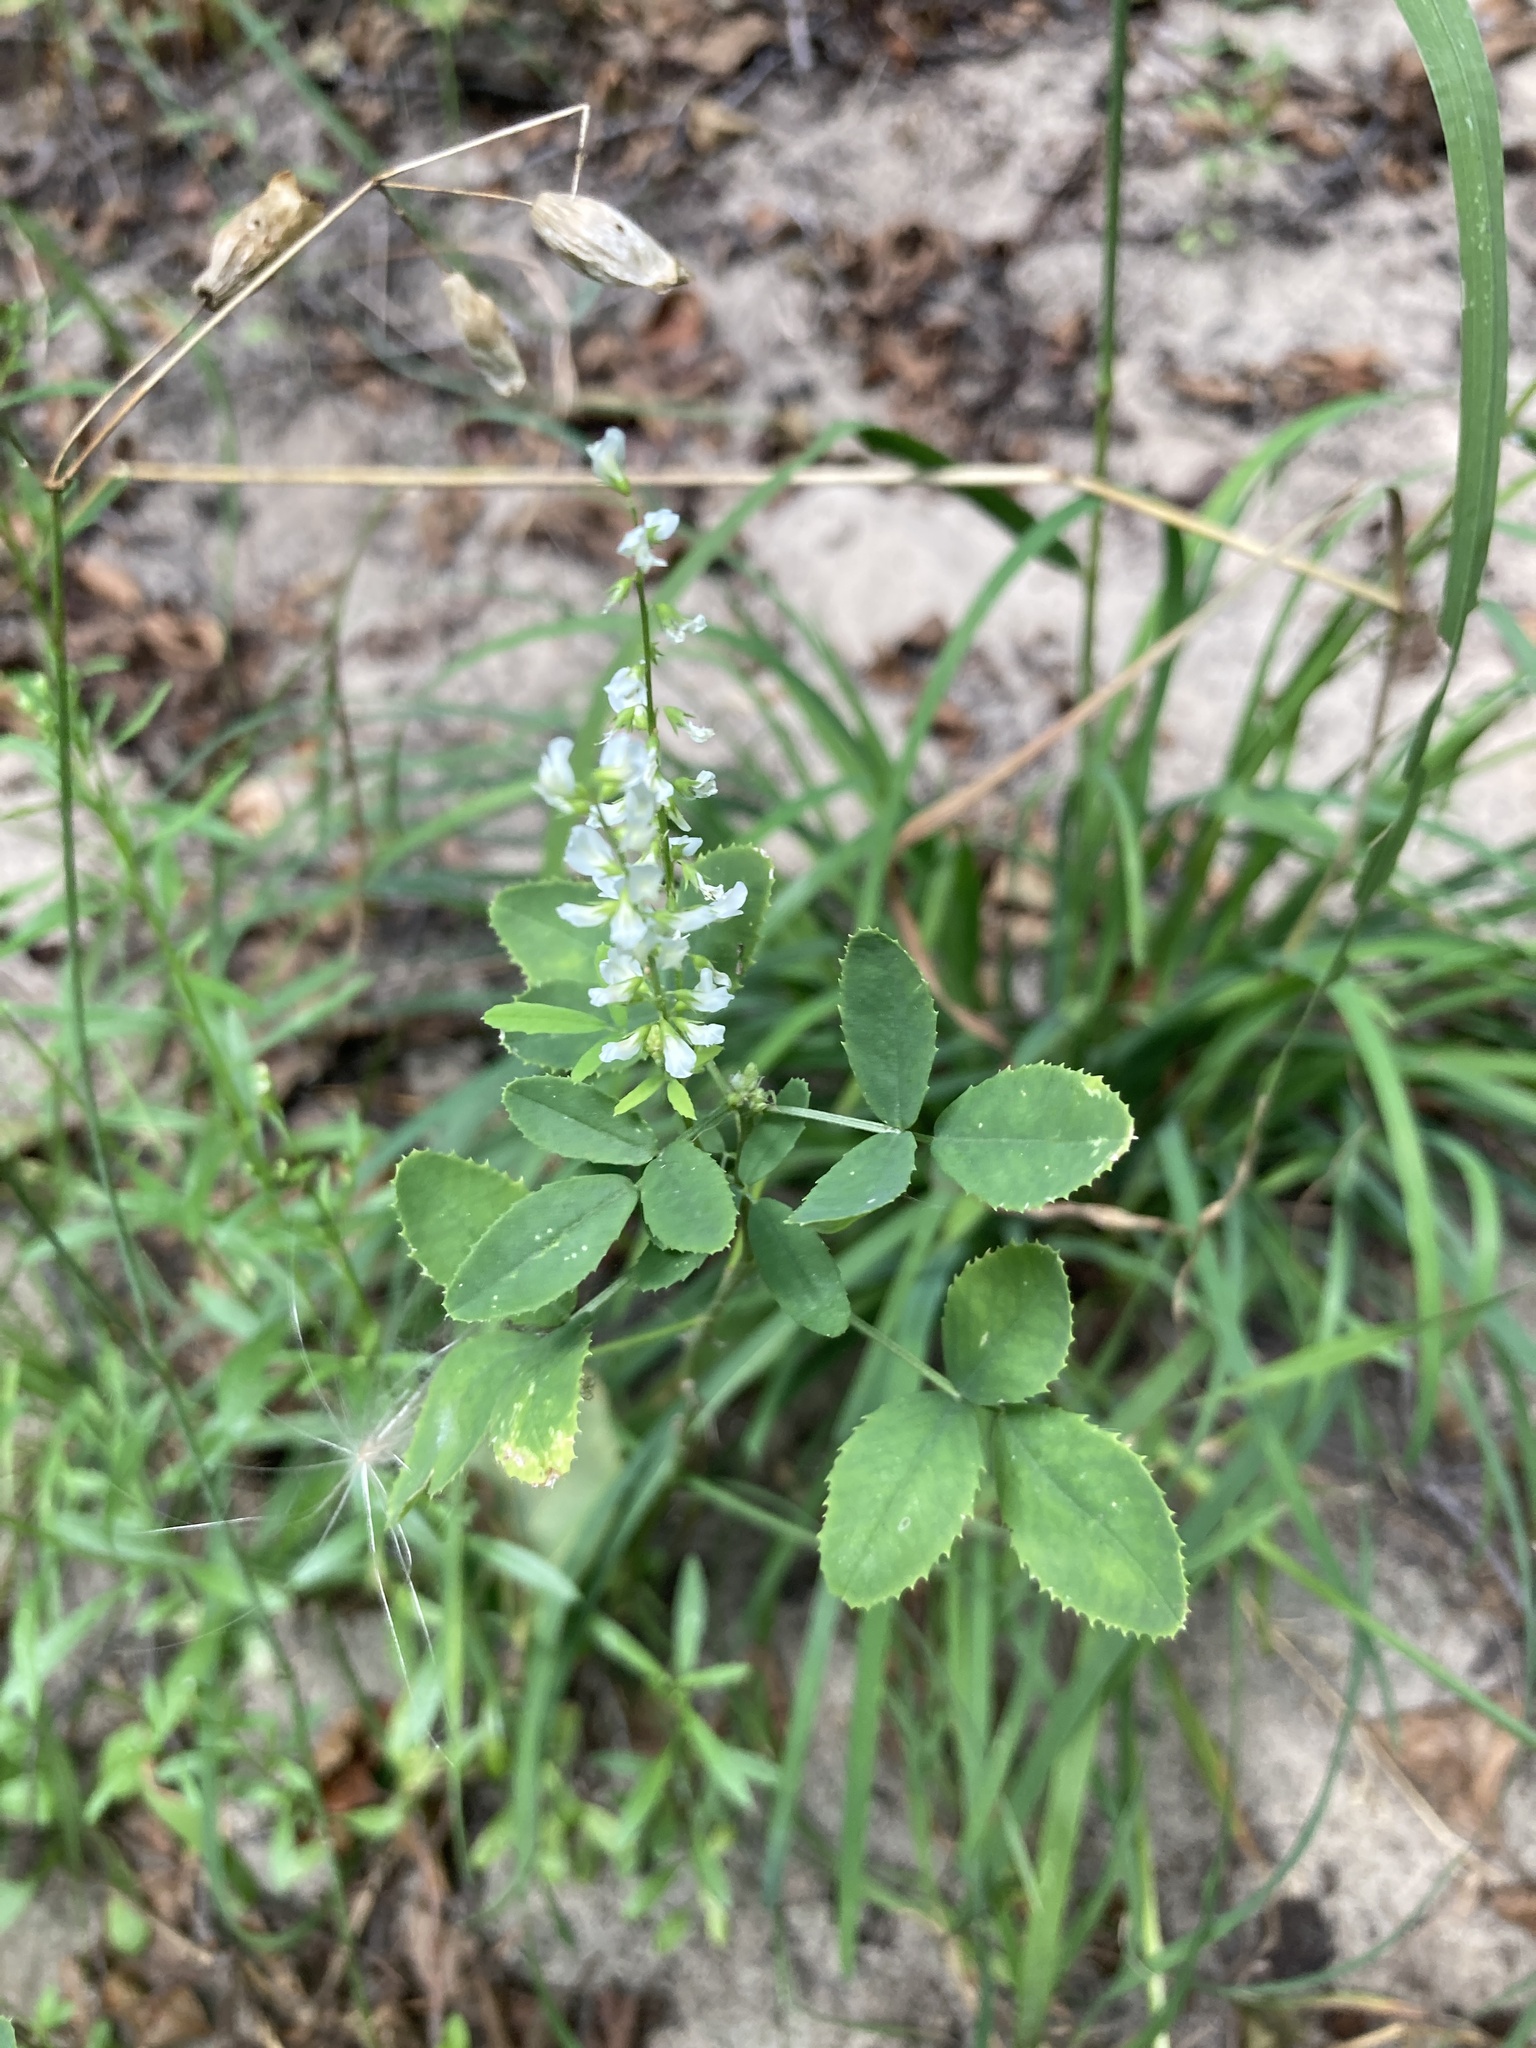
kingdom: Plantae
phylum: Tracheophyta
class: Magnoliopsida
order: Fabales
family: Fabaceae
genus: Melilotus
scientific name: Melilotus albus
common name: White melilot
